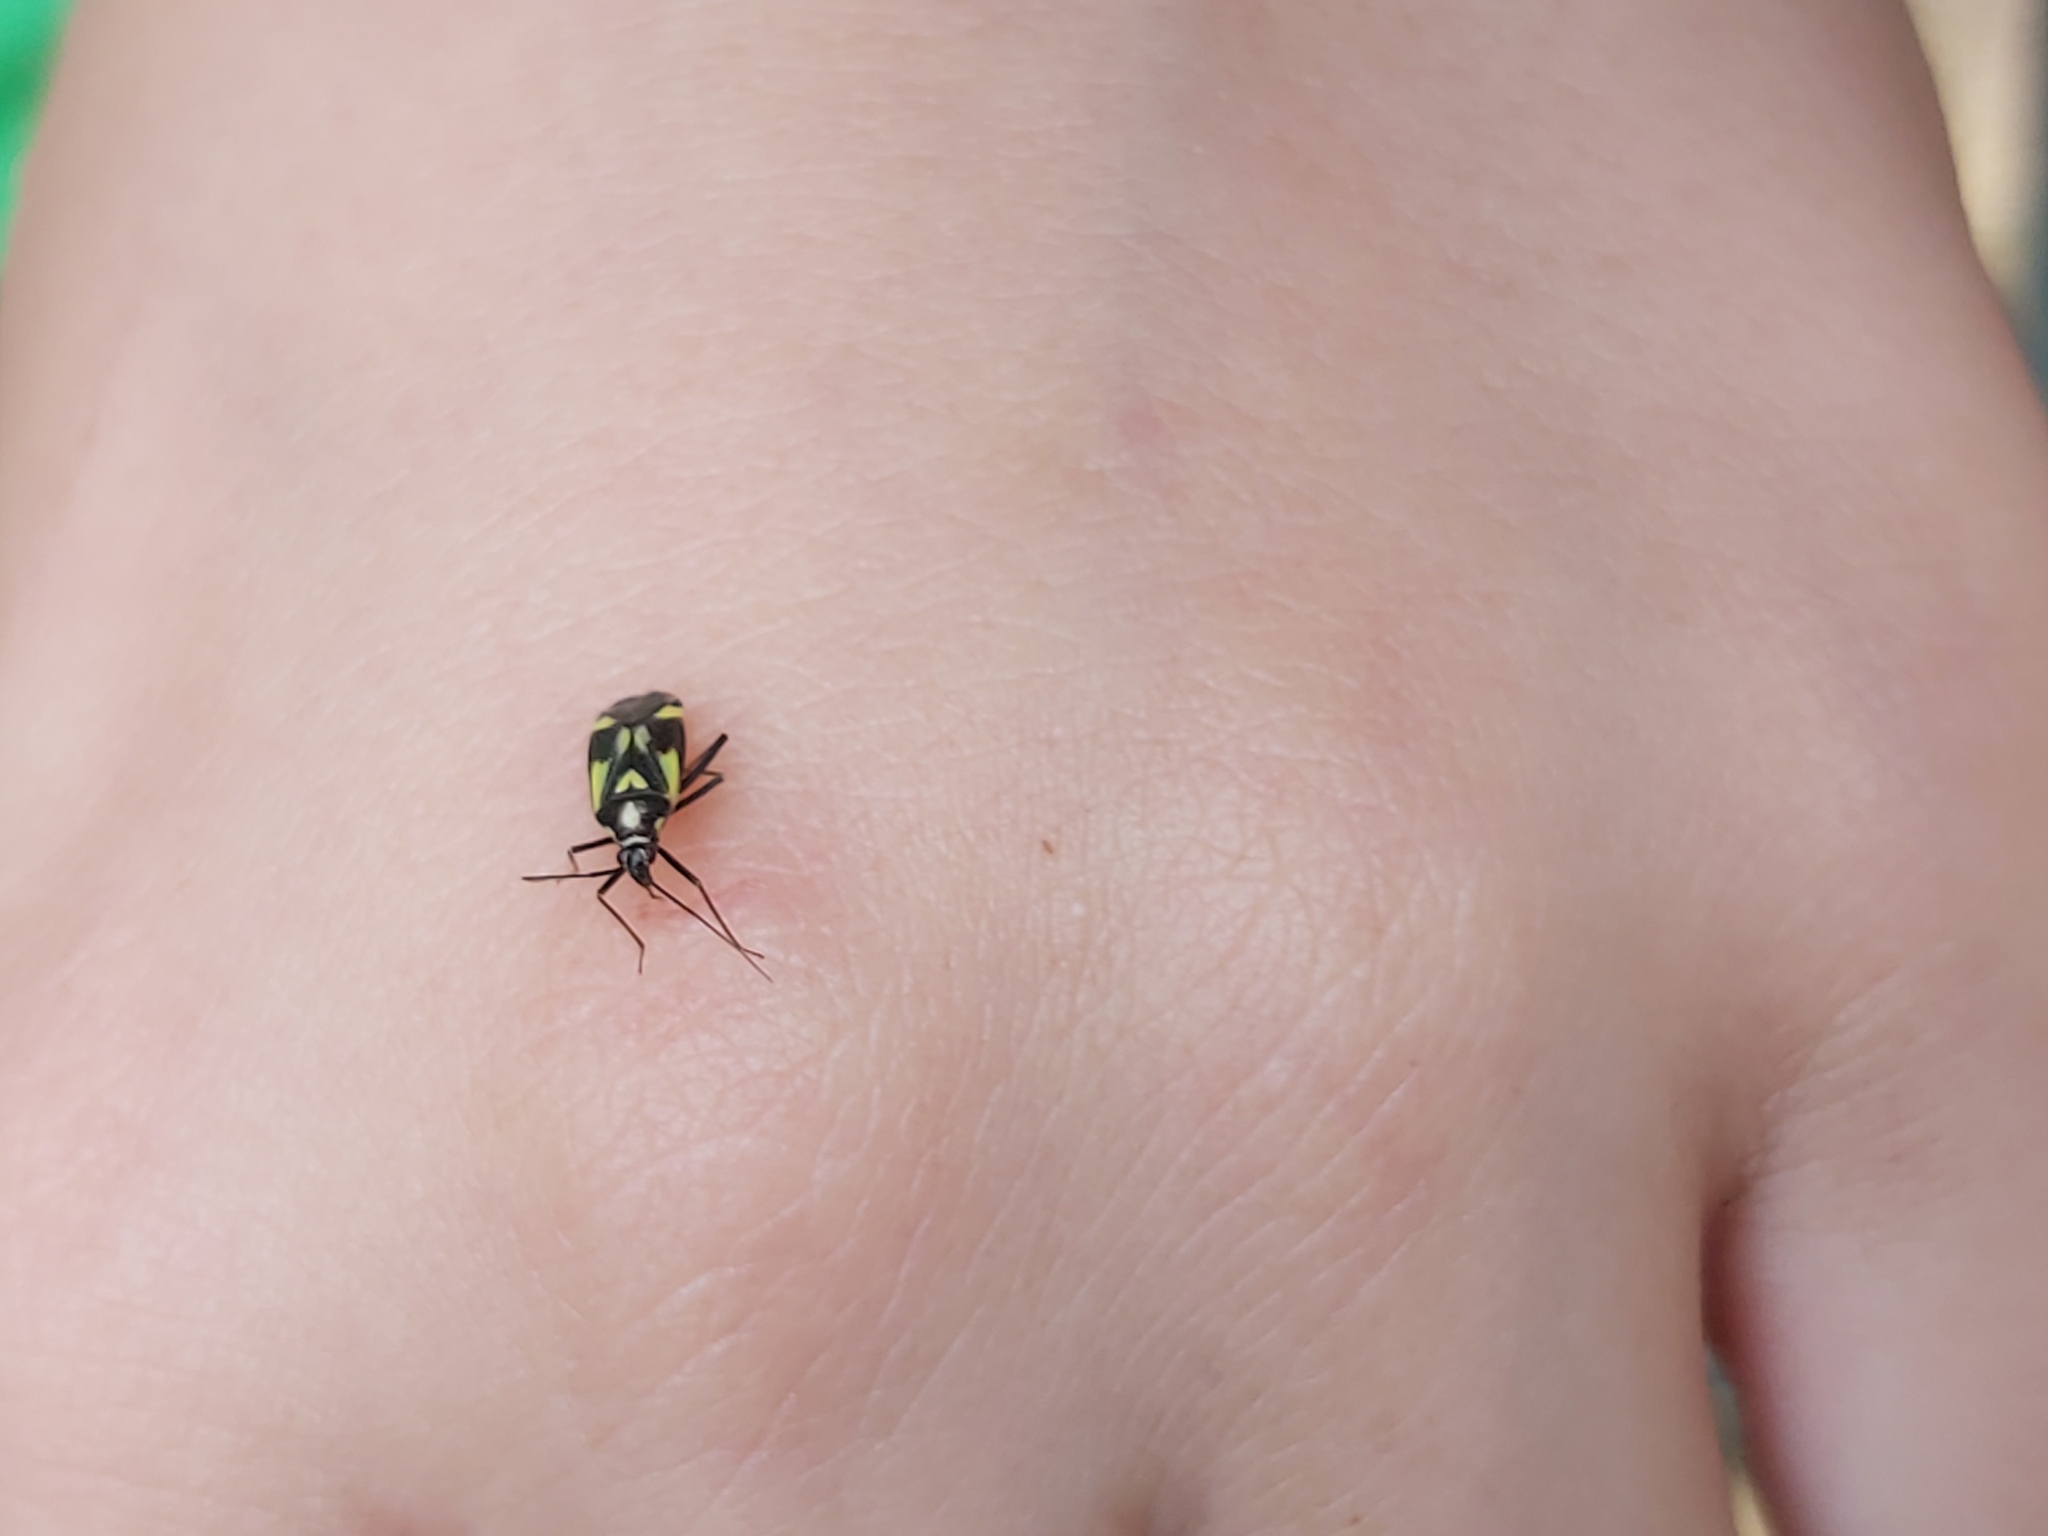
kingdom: Animalia
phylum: Arthropoda
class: Insecta
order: Hemiptera
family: Miridae
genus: Grypocoris
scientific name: Grypocoris sexguttatus
